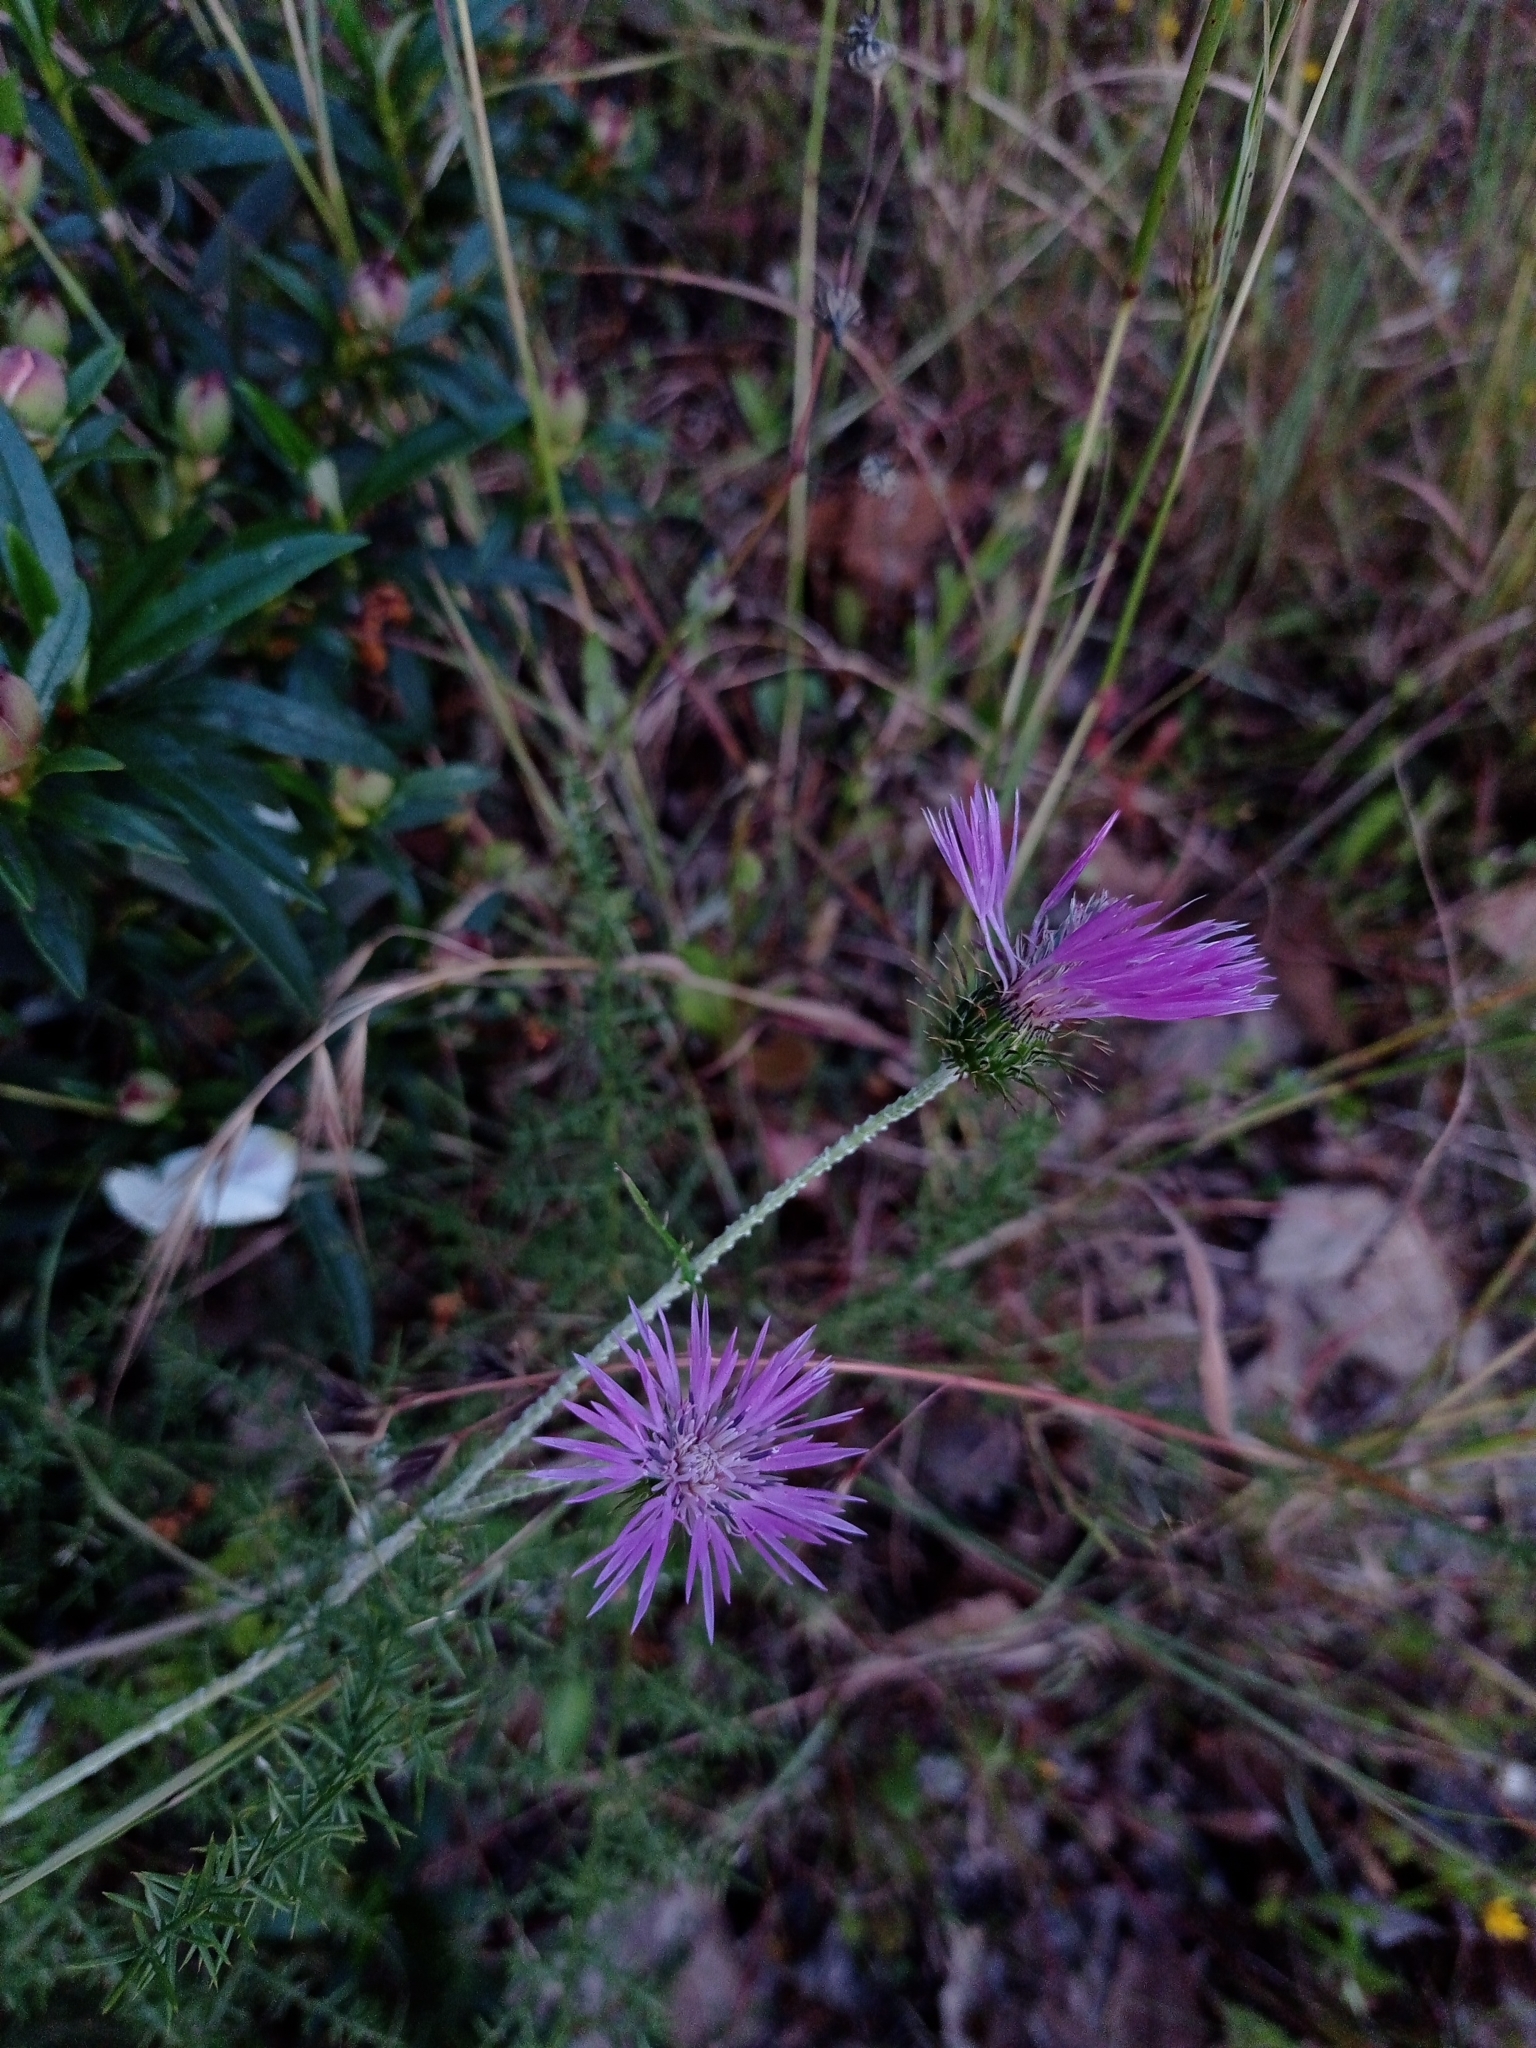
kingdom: Plantae
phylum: Tracheophyta
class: Magnoliopsida
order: Asterales
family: Asteraceae
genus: Galactites
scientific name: Galactites tomentosa
